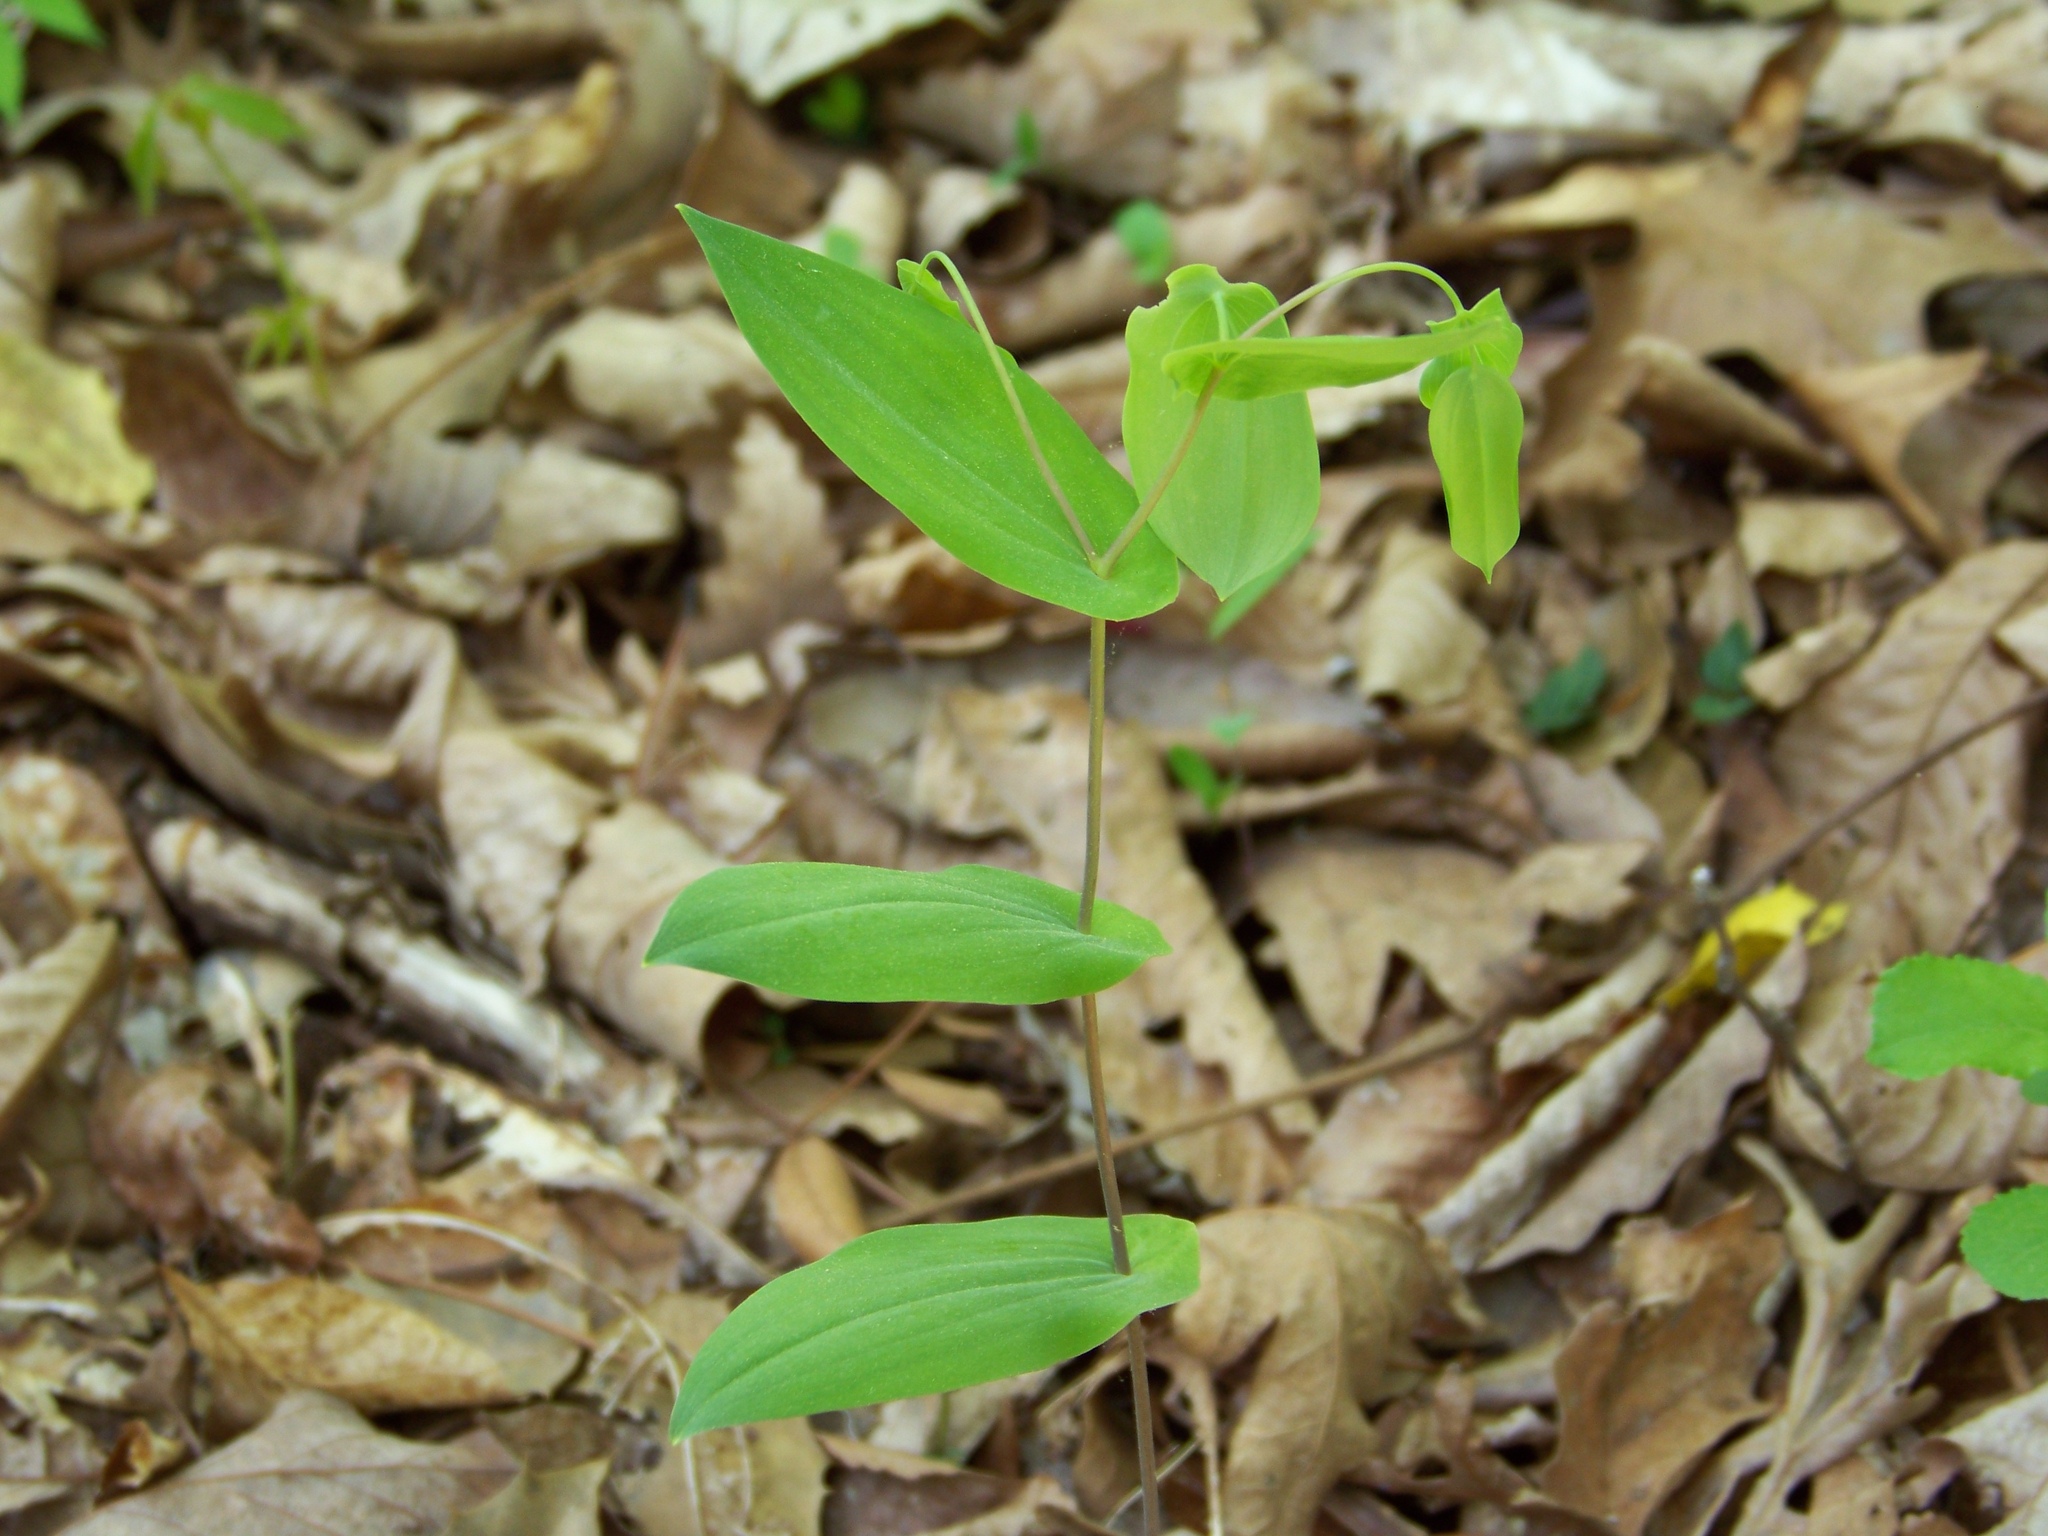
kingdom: Plantae
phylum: Tracheophyta
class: Liliopsida
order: Liliales
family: Colchicaceae
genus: Uvularia
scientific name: Uvularia perfoliata
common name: Perfoliate bellwort
